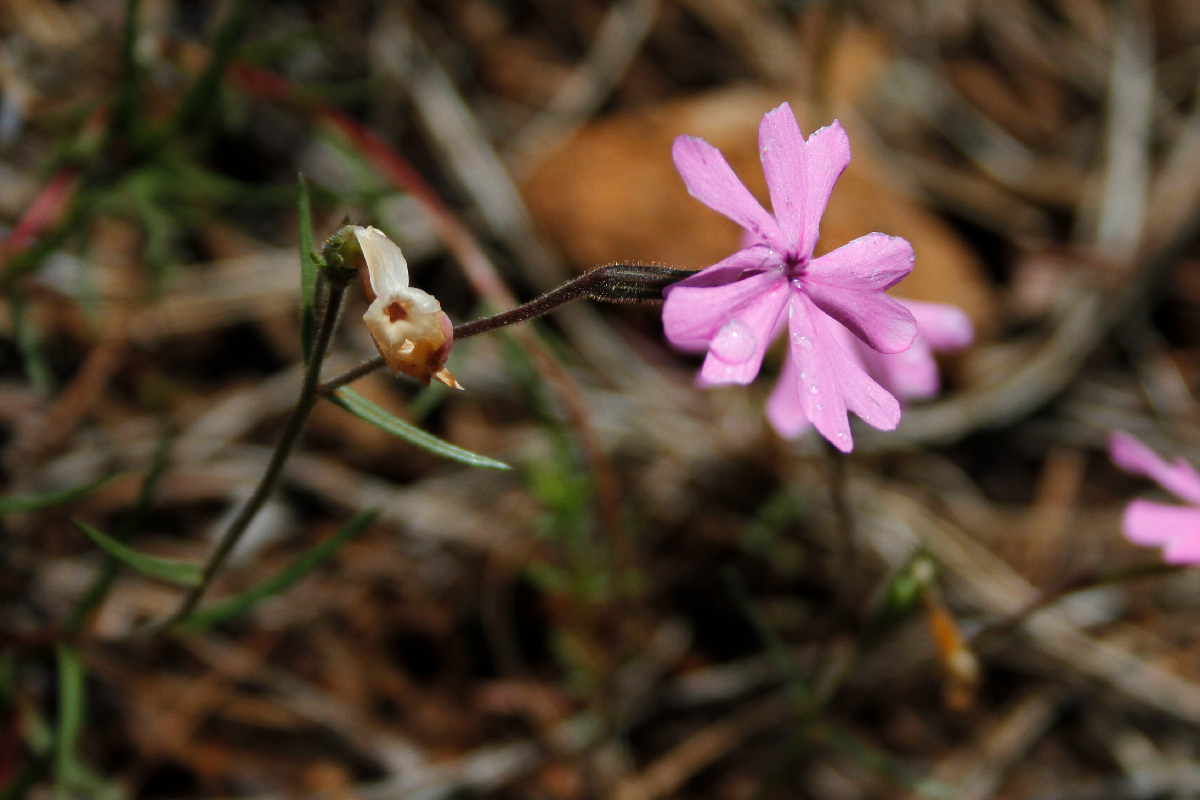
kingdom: Plantae
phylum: Tracheophyta
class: Magnoliopsida
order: Ericales
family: Polemoniaceae
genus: Phlox
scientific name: Phlox speciosa
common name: Bush phlox
